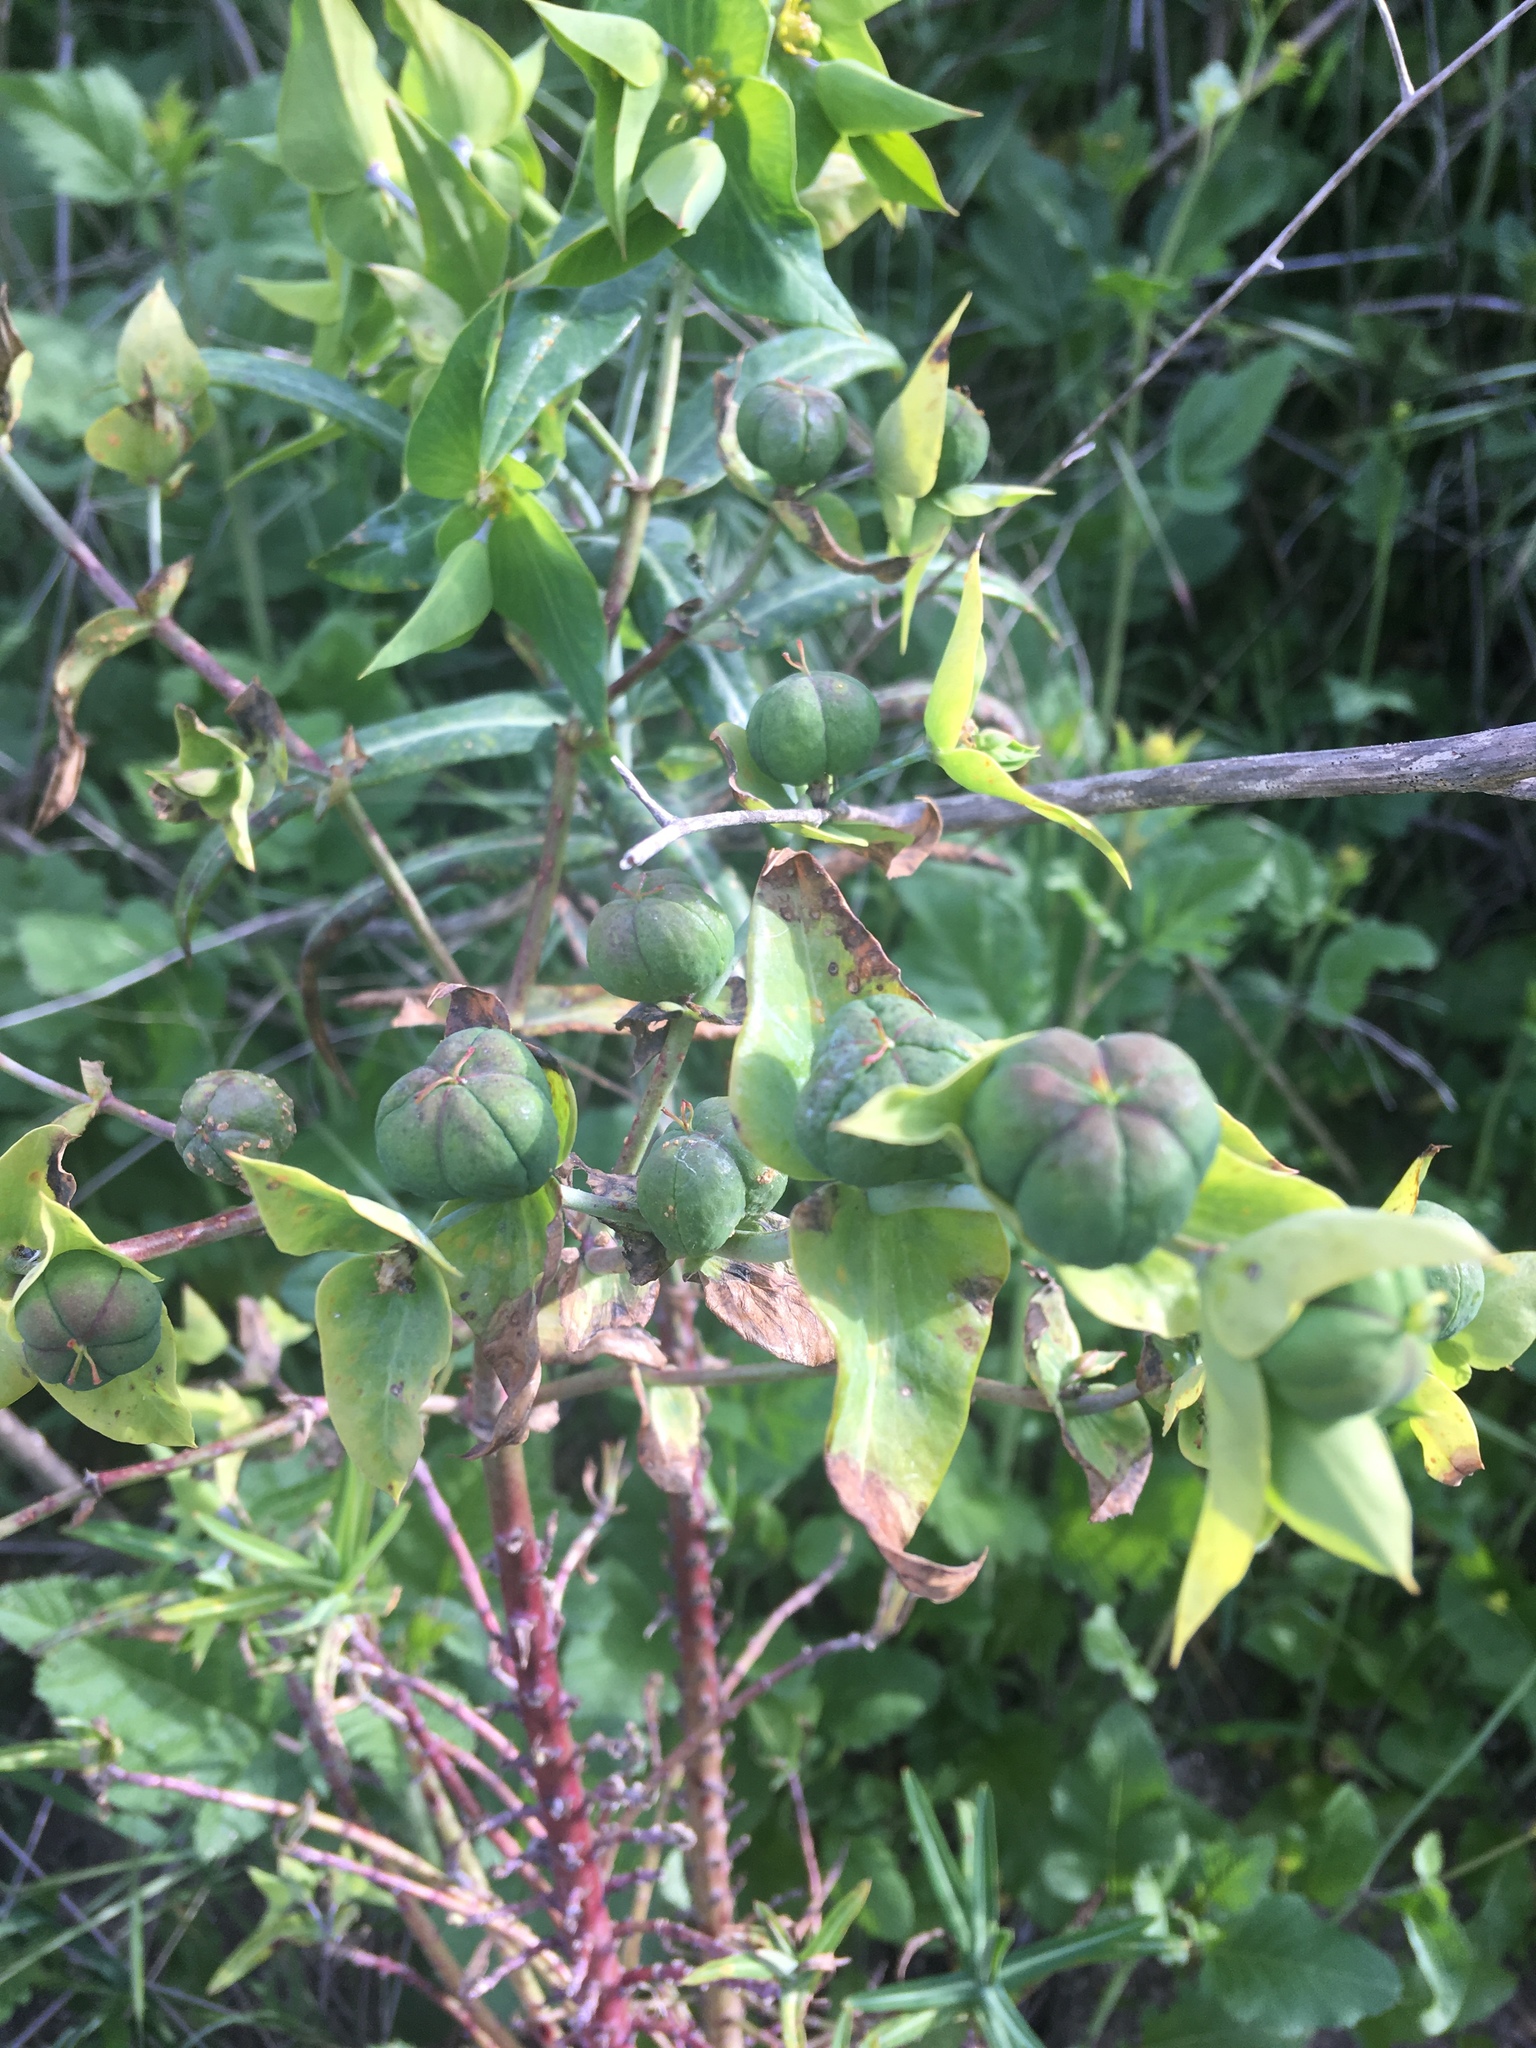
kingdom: Plantae
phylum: Tracheophyta
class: Magnoliopsida
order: Malpighiales
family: Euphorbiaceae
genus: Euphorbia
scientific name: Euphorbia lathyris
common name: Caper spurge
